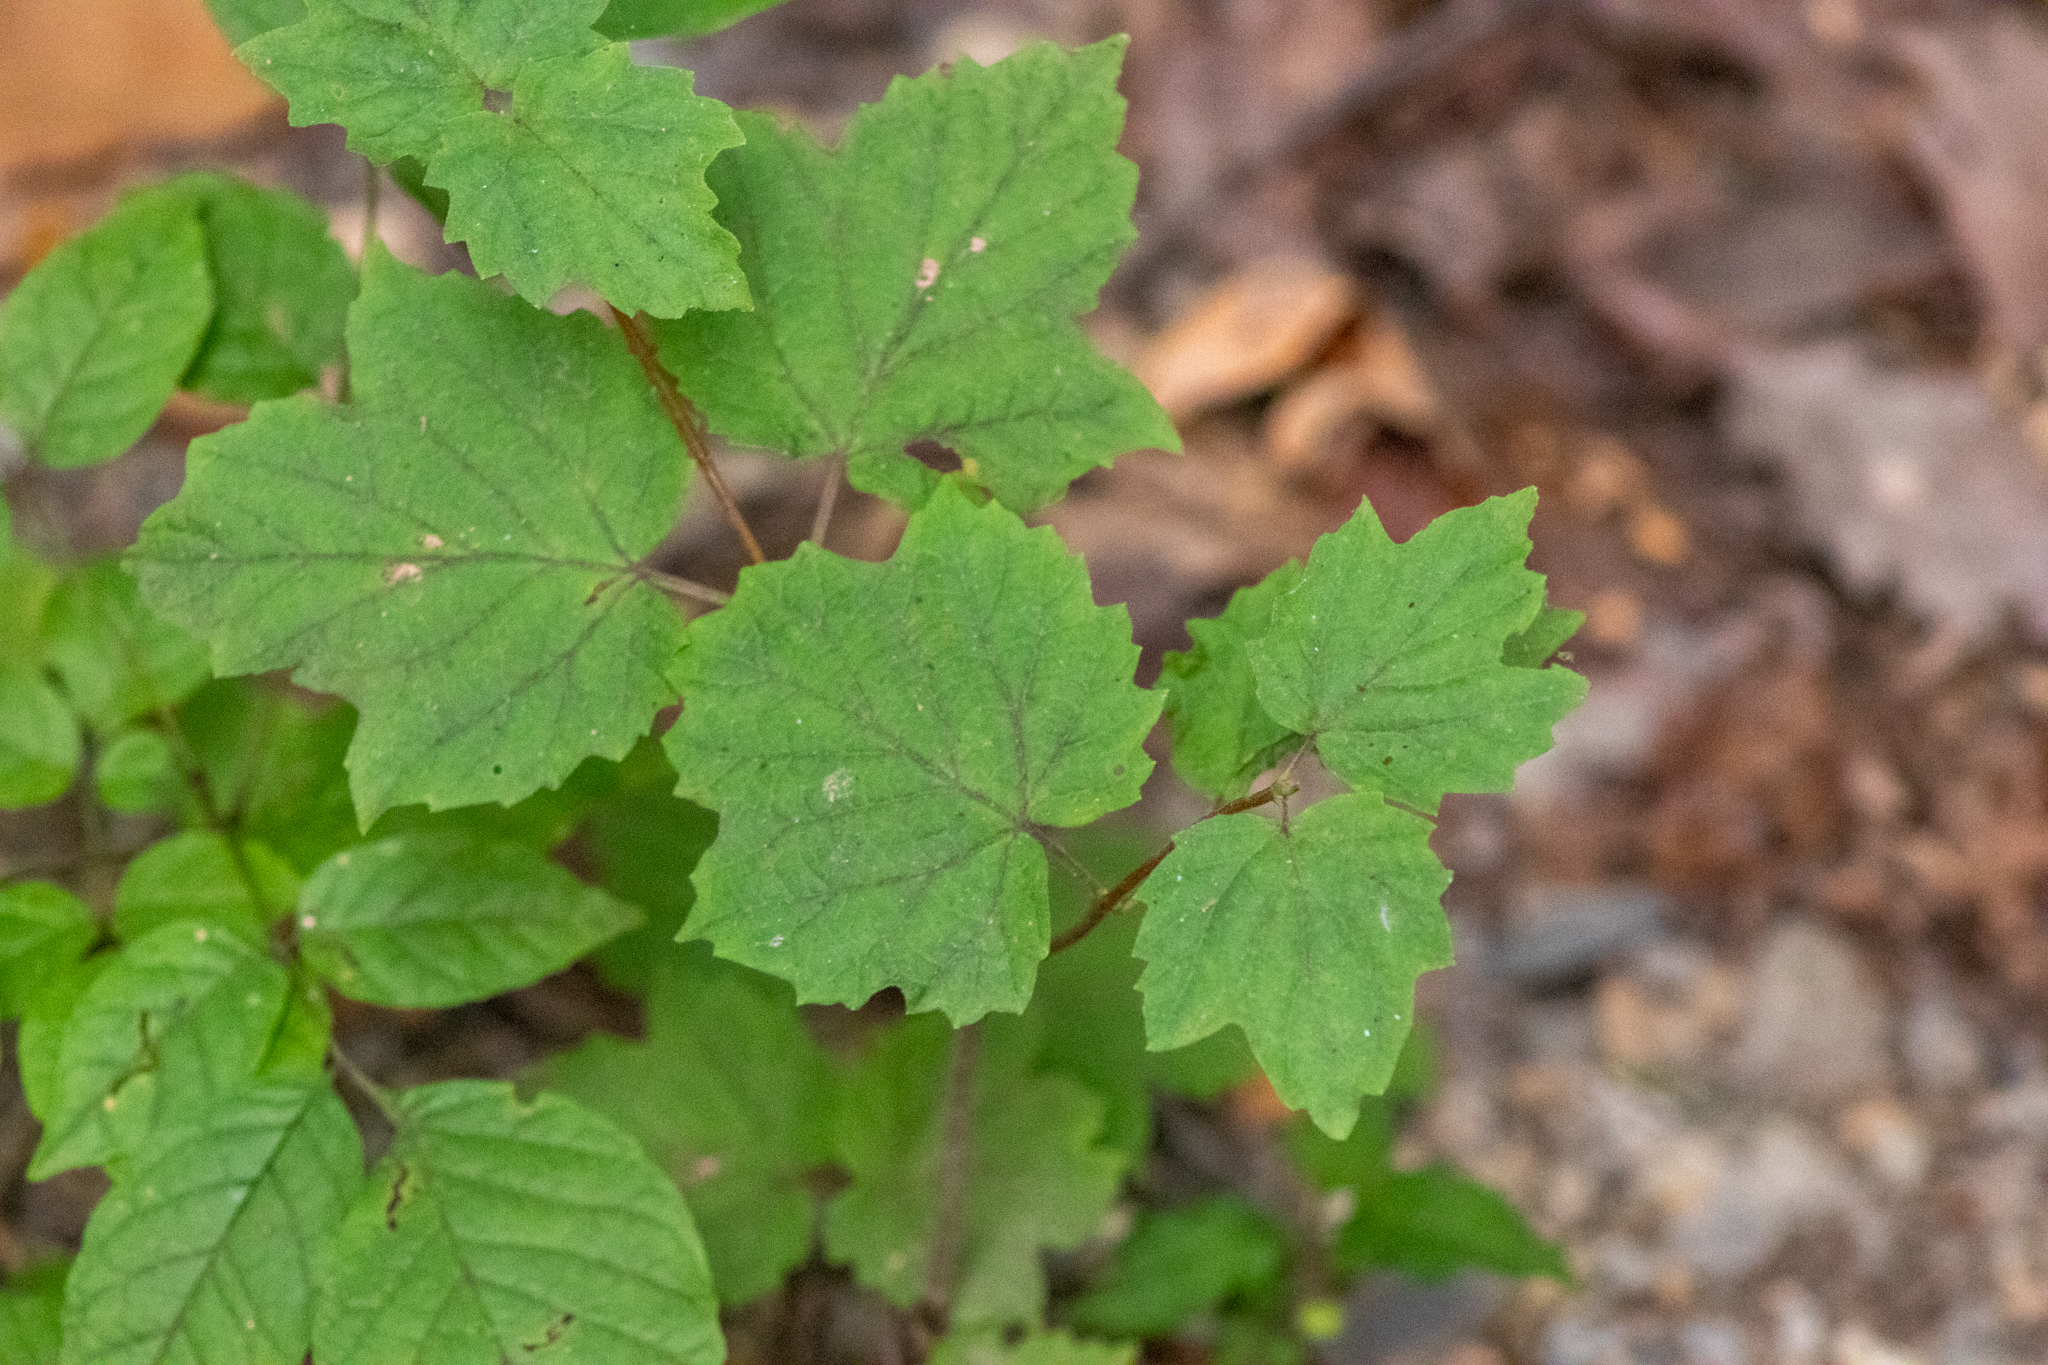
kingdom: Plantae
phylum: Tracheophyta
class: Magnoliopsida
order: Dipsacales
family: Viburnaceae
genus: Viburnum
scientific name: Viburnum acerifolium
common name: Dockmackie
